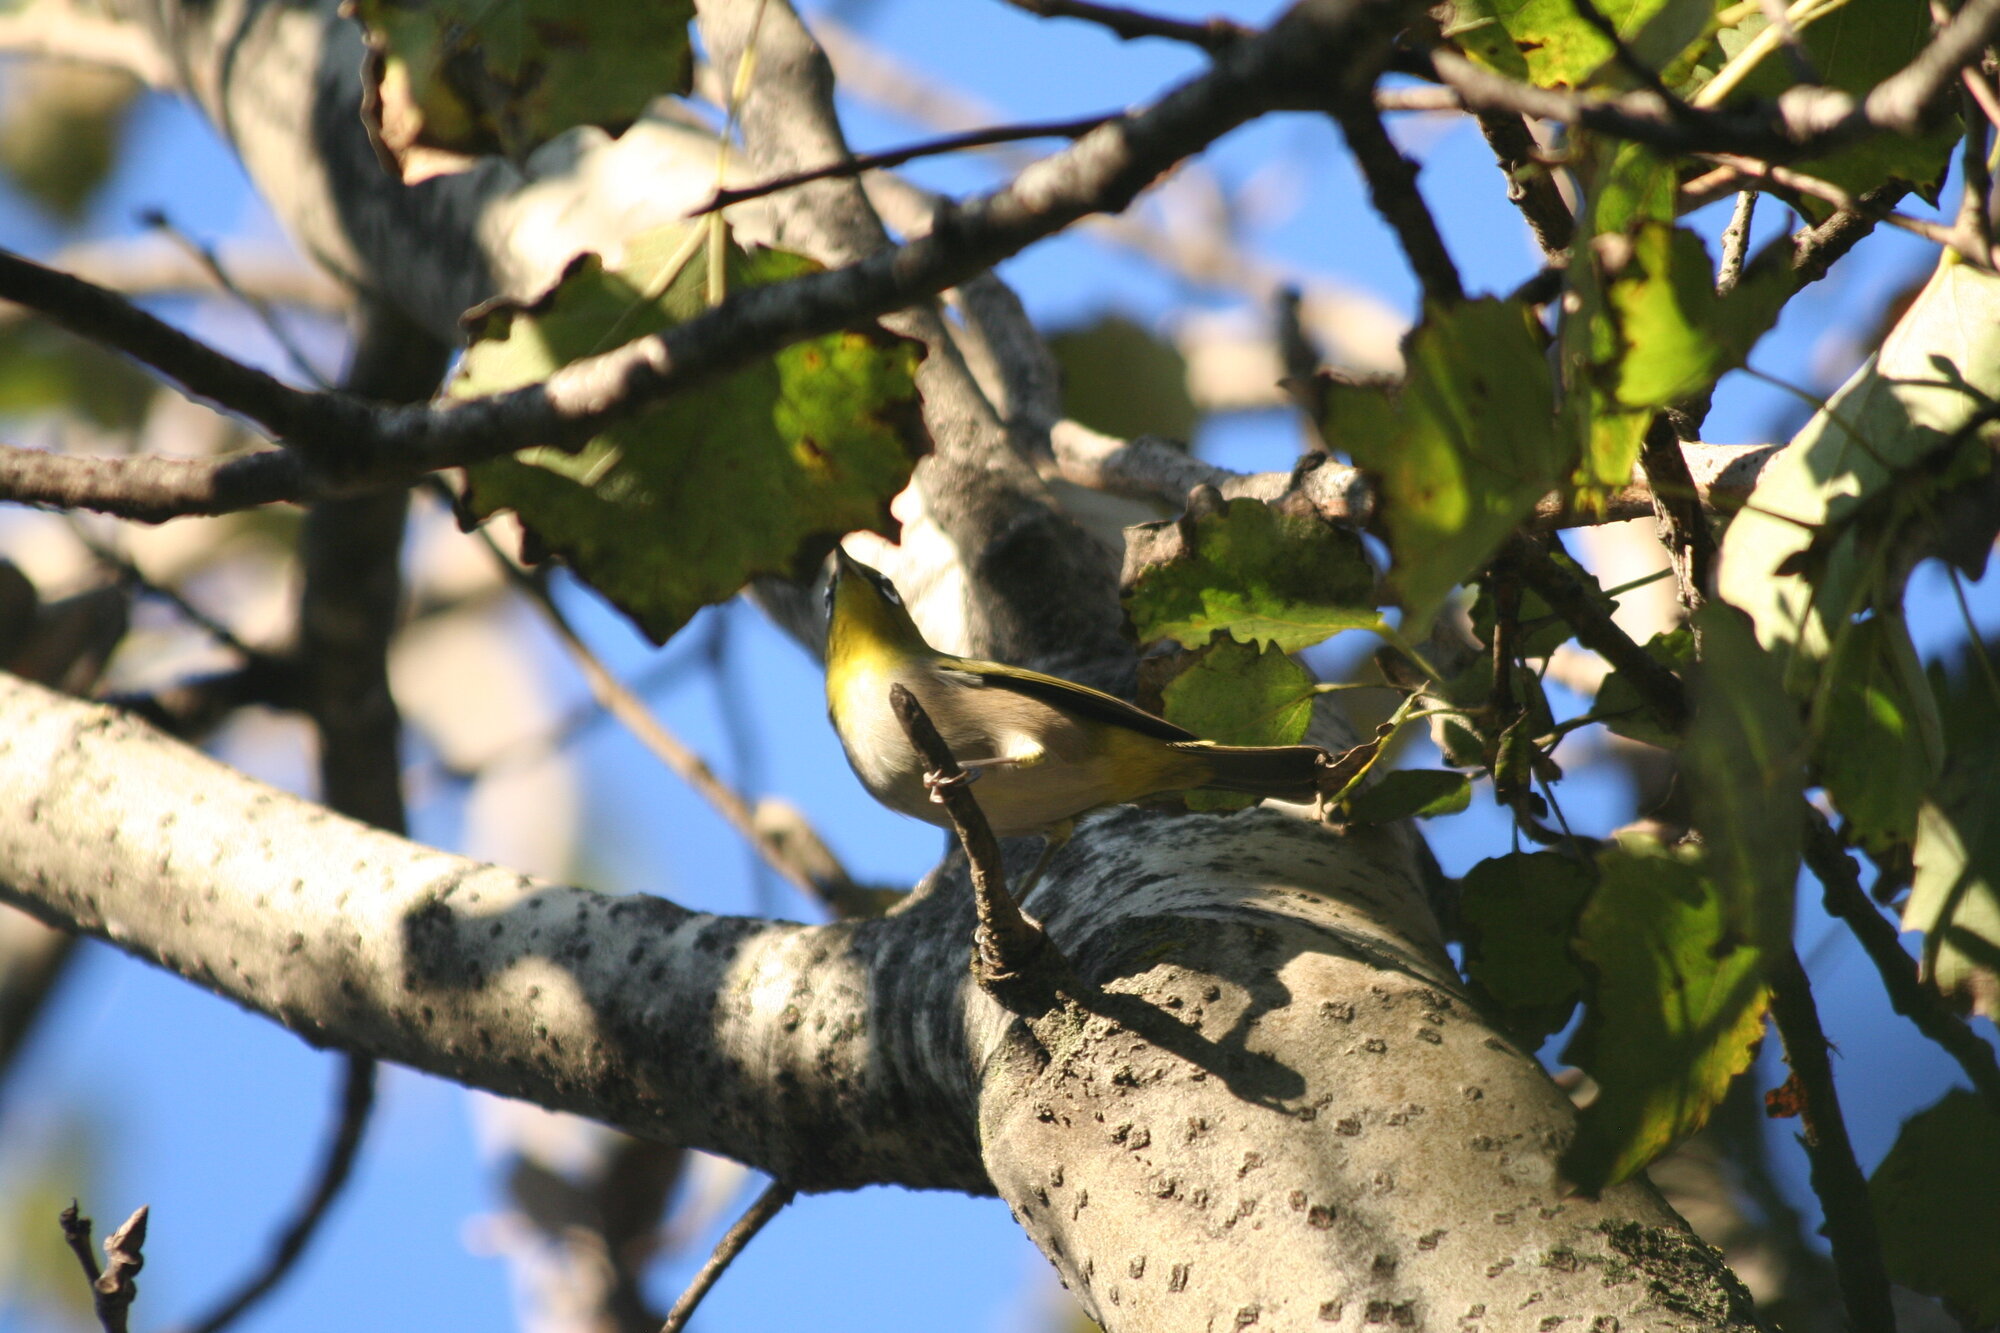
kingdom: Animalia
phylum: Chordata
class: Aves
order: Passeriformes
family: Zosteropidae
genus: Zosterops
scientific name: Zosterops virens
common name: Cape white-eye
